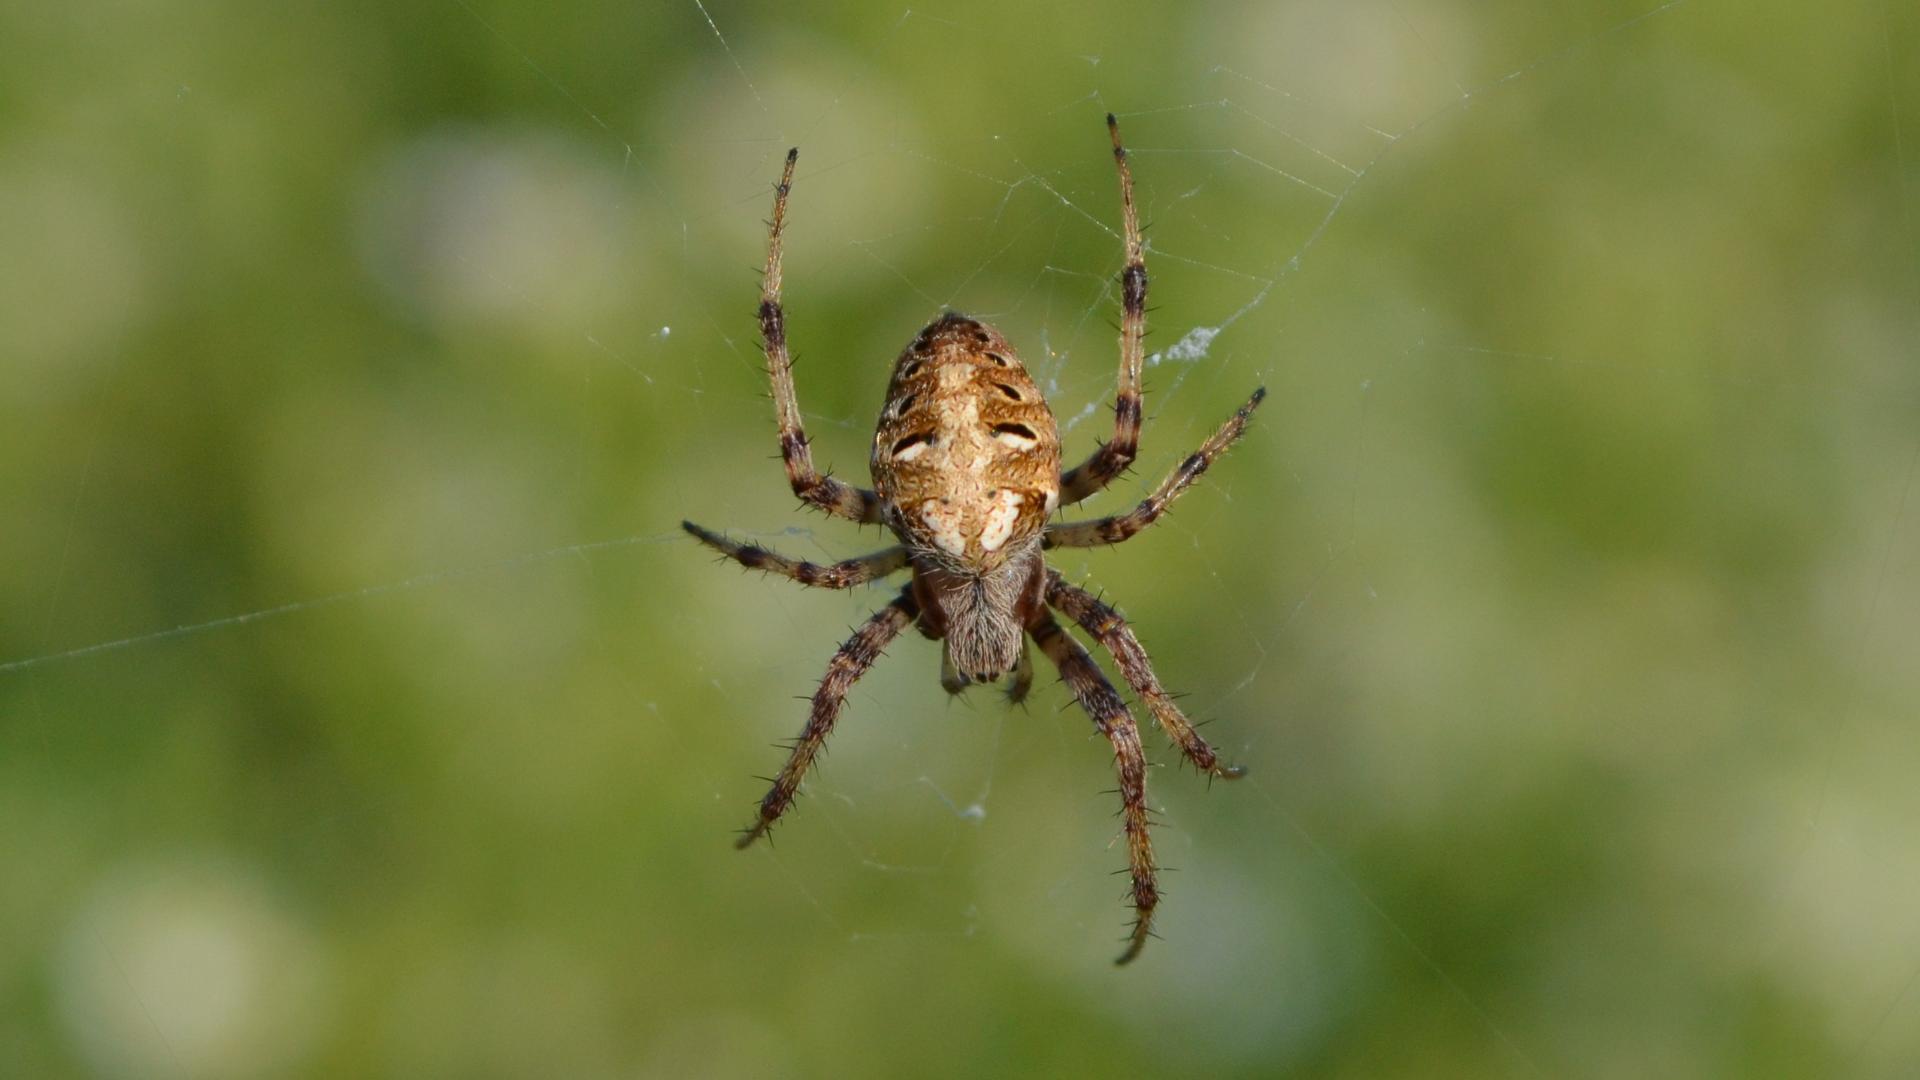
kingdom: Animalia
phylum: Arthropoda
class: Arachnida
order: Araneae
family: Araneidae
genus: Neoscona
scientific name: Neoscona arabesca
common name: Orb weavers
